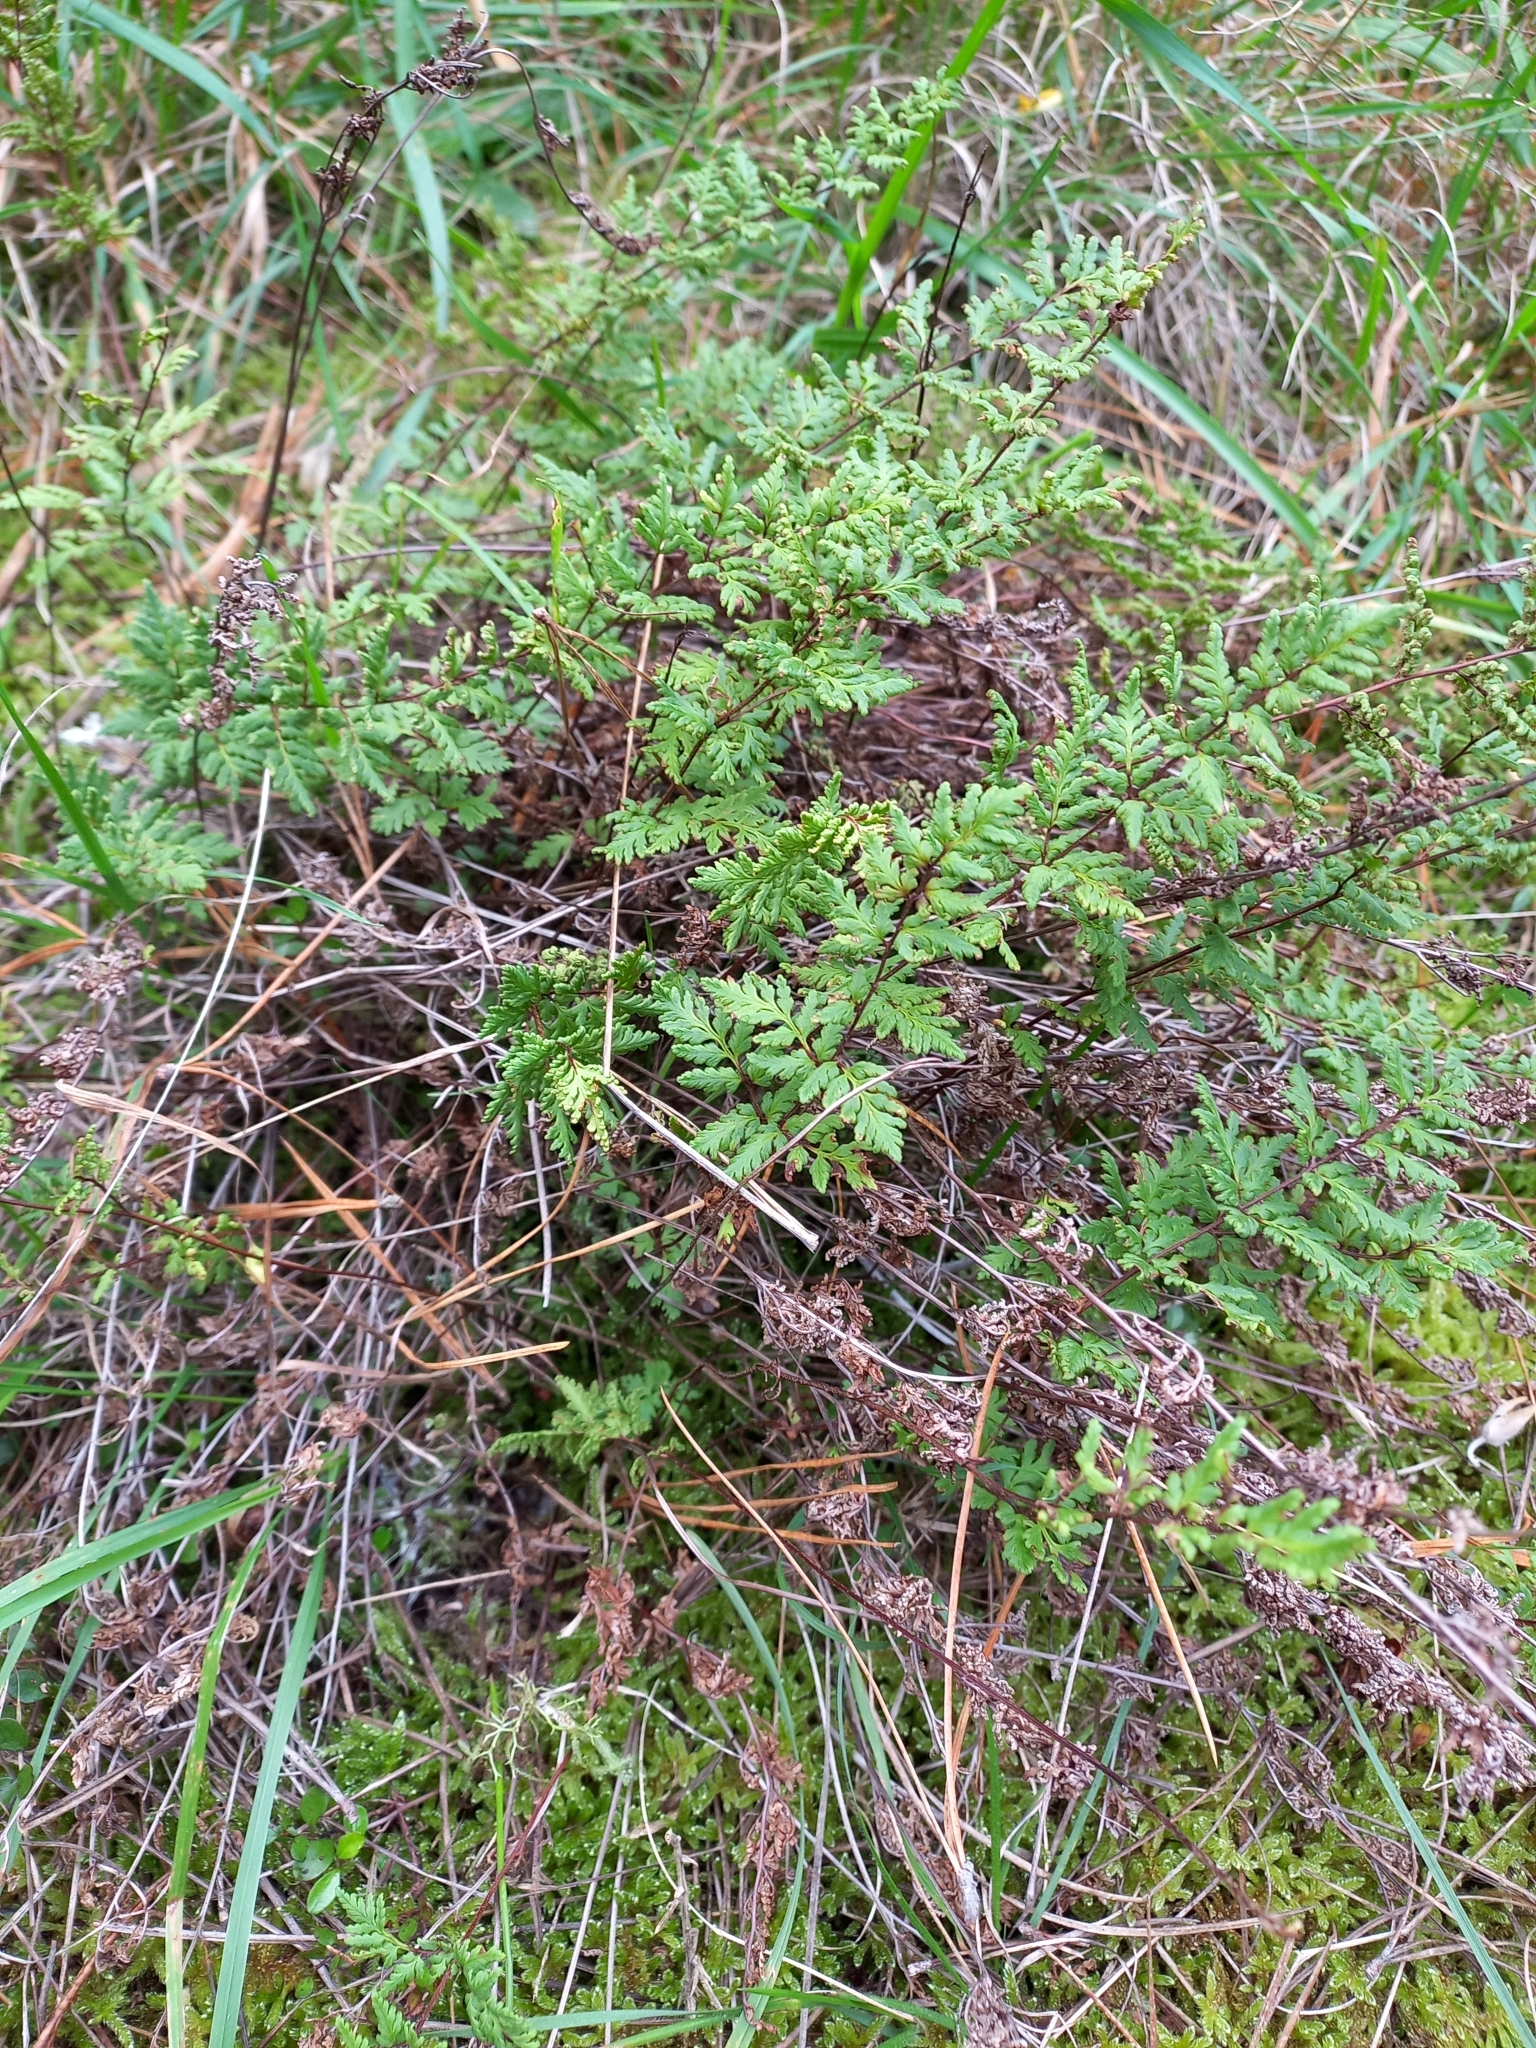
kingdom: Plantae
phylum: Tracheophyta
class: Polypodiopsida
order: Polypodiales
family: Pteridaceae
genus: Cheilanthes
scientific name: Cheilanthes sieberi
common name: Mulga fern
